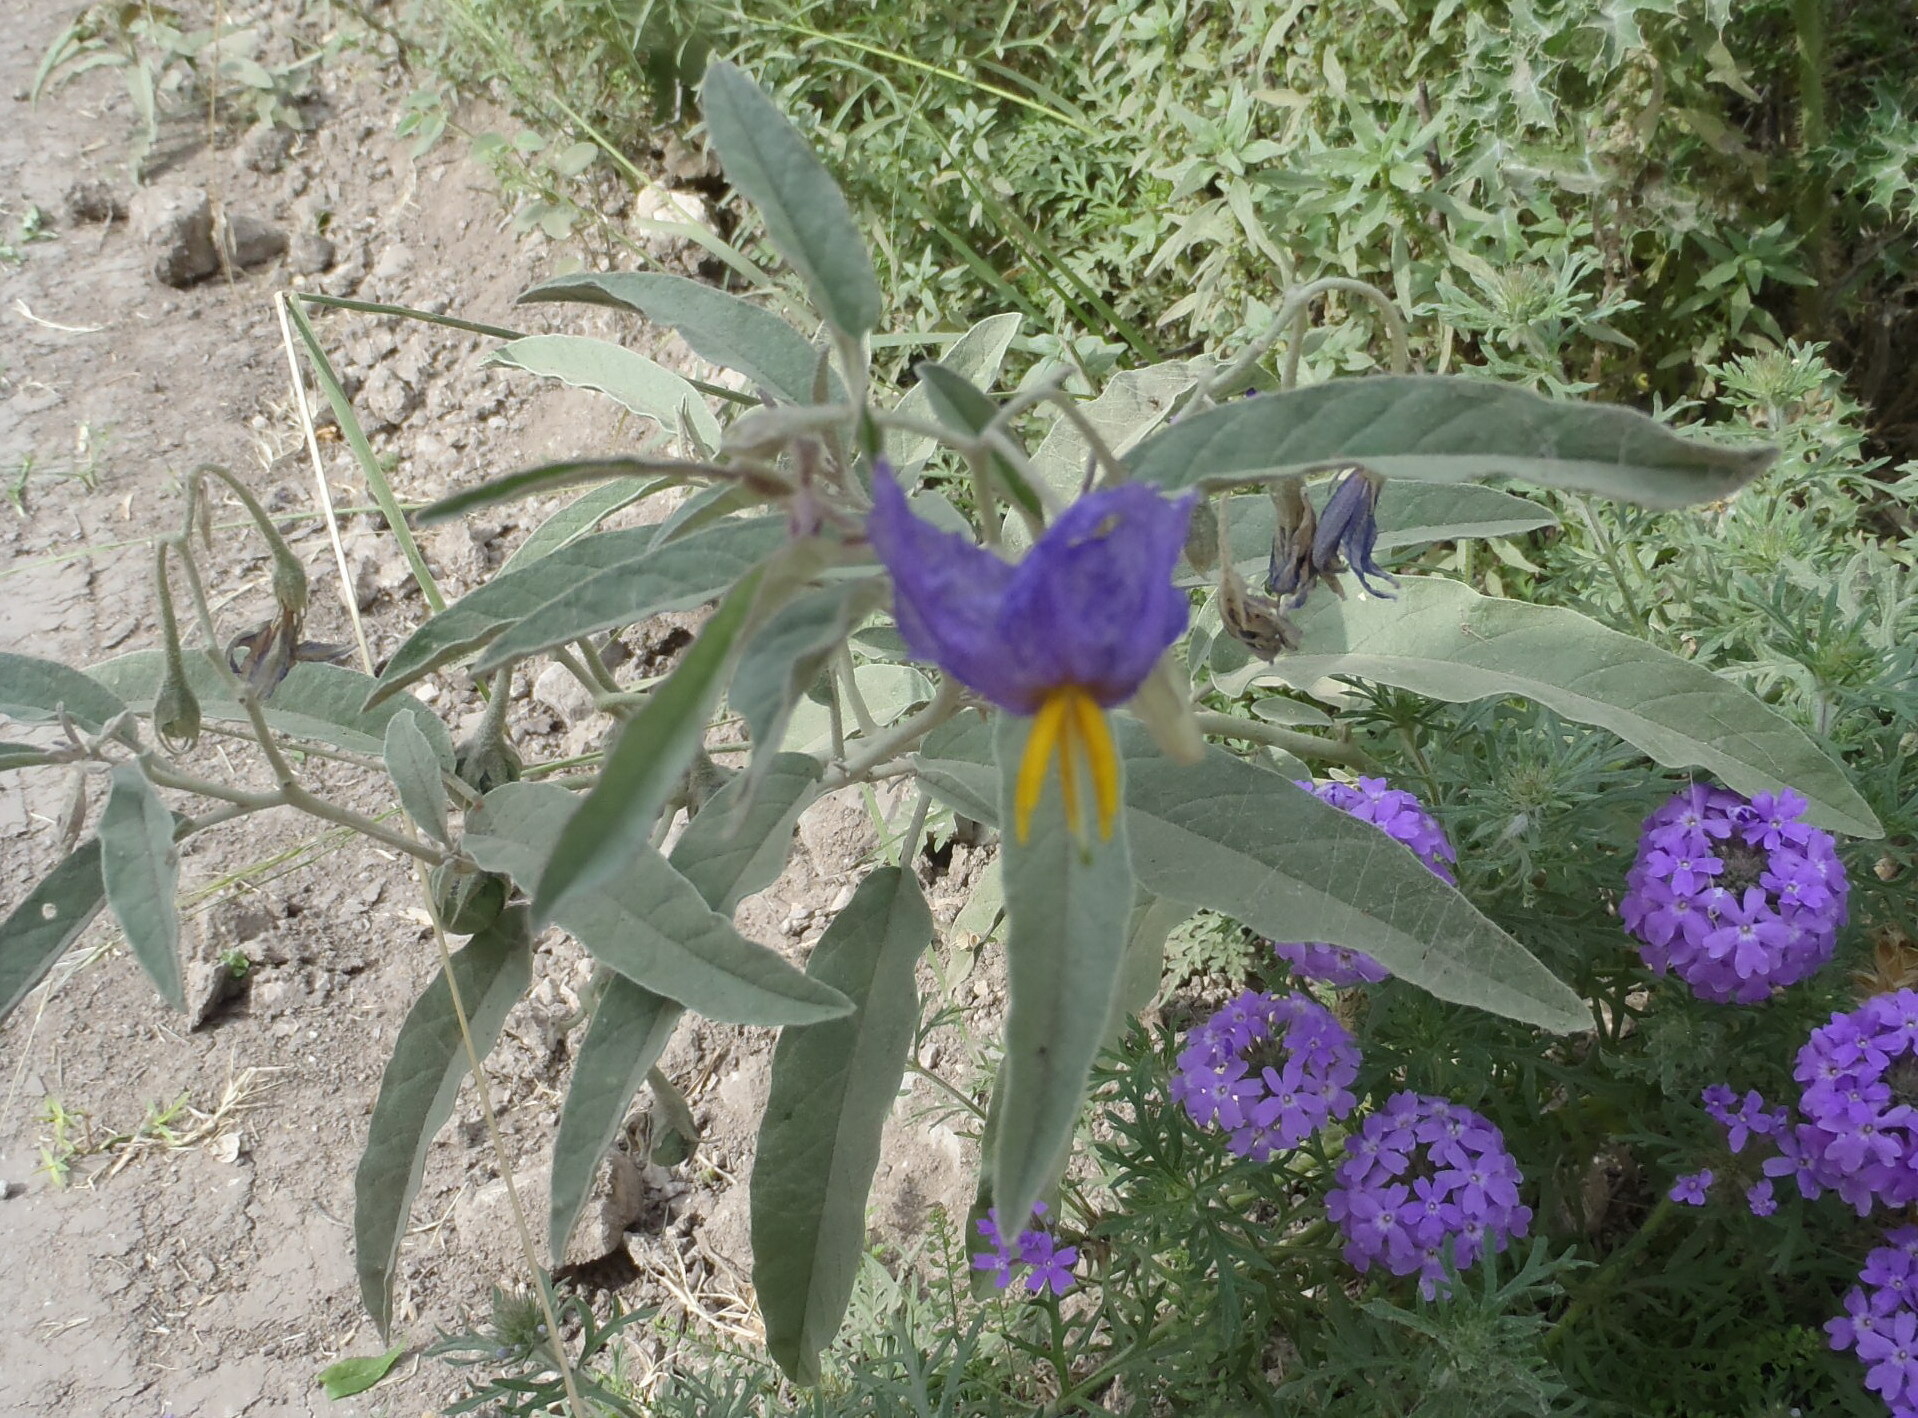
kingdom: Plantae
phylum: Tracheophyta
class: Magnoliopsida
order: Solanales
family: Solanaceae
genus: Solanum
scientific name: Solanum elaeagnifolium
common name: Silverleaf nightshade
